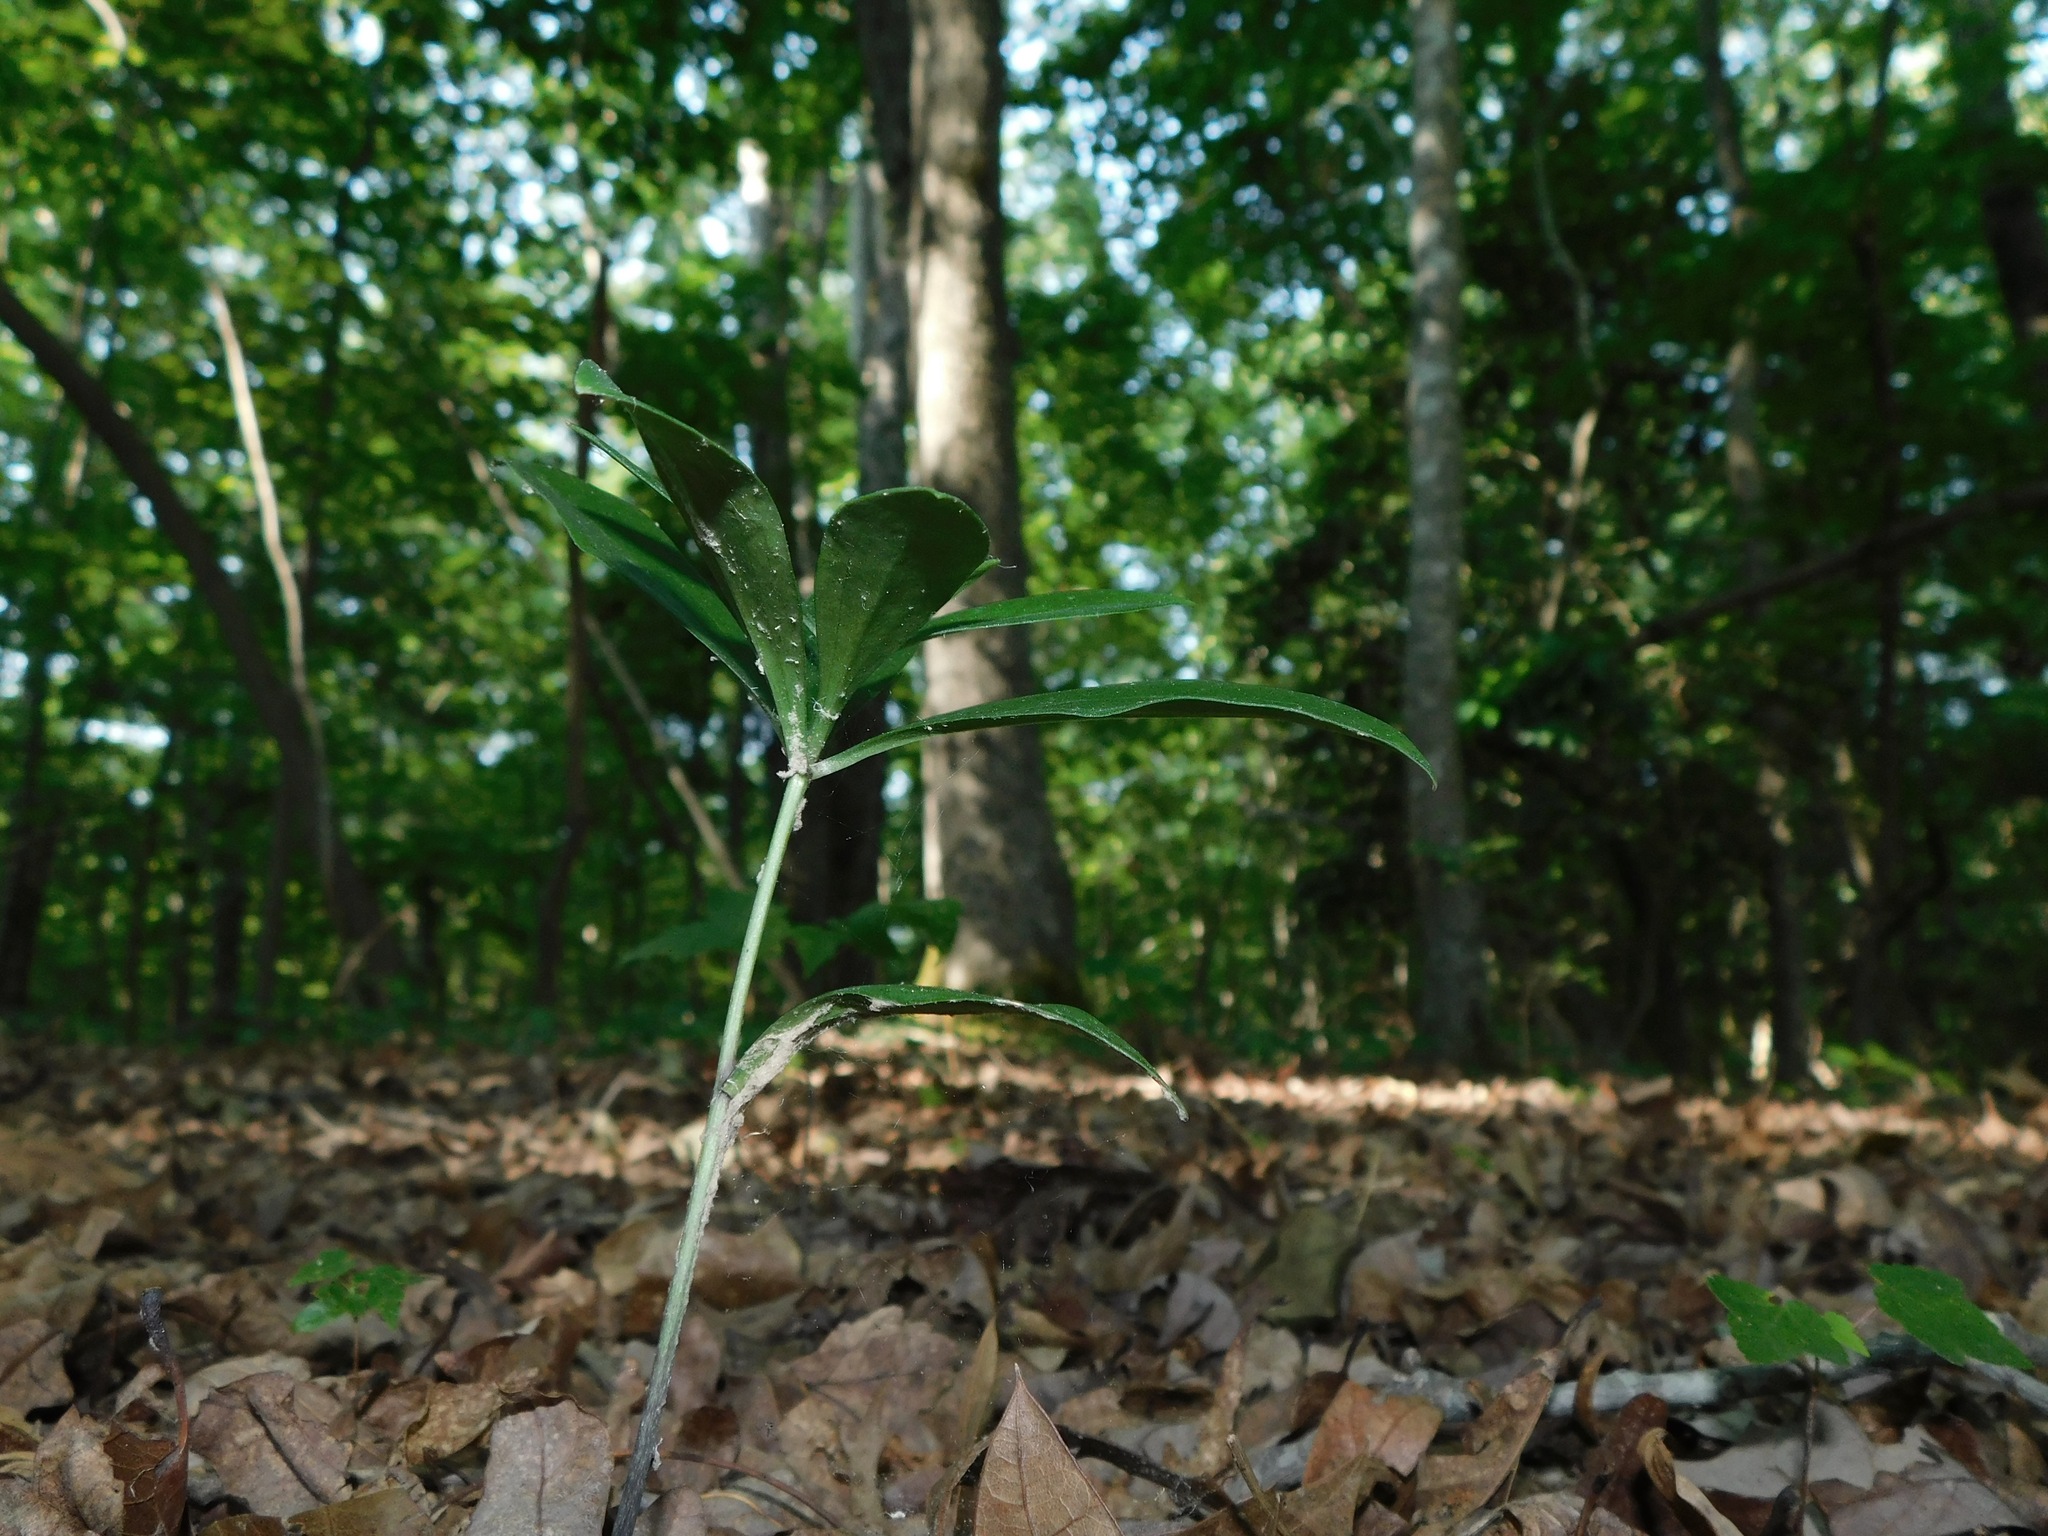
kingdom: Plantae
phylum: Tracheophyta
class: Liliopsida
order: Liliales
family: Liliaceae
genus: Lilium
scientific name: Lilium michauxii
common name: Carolina lily
